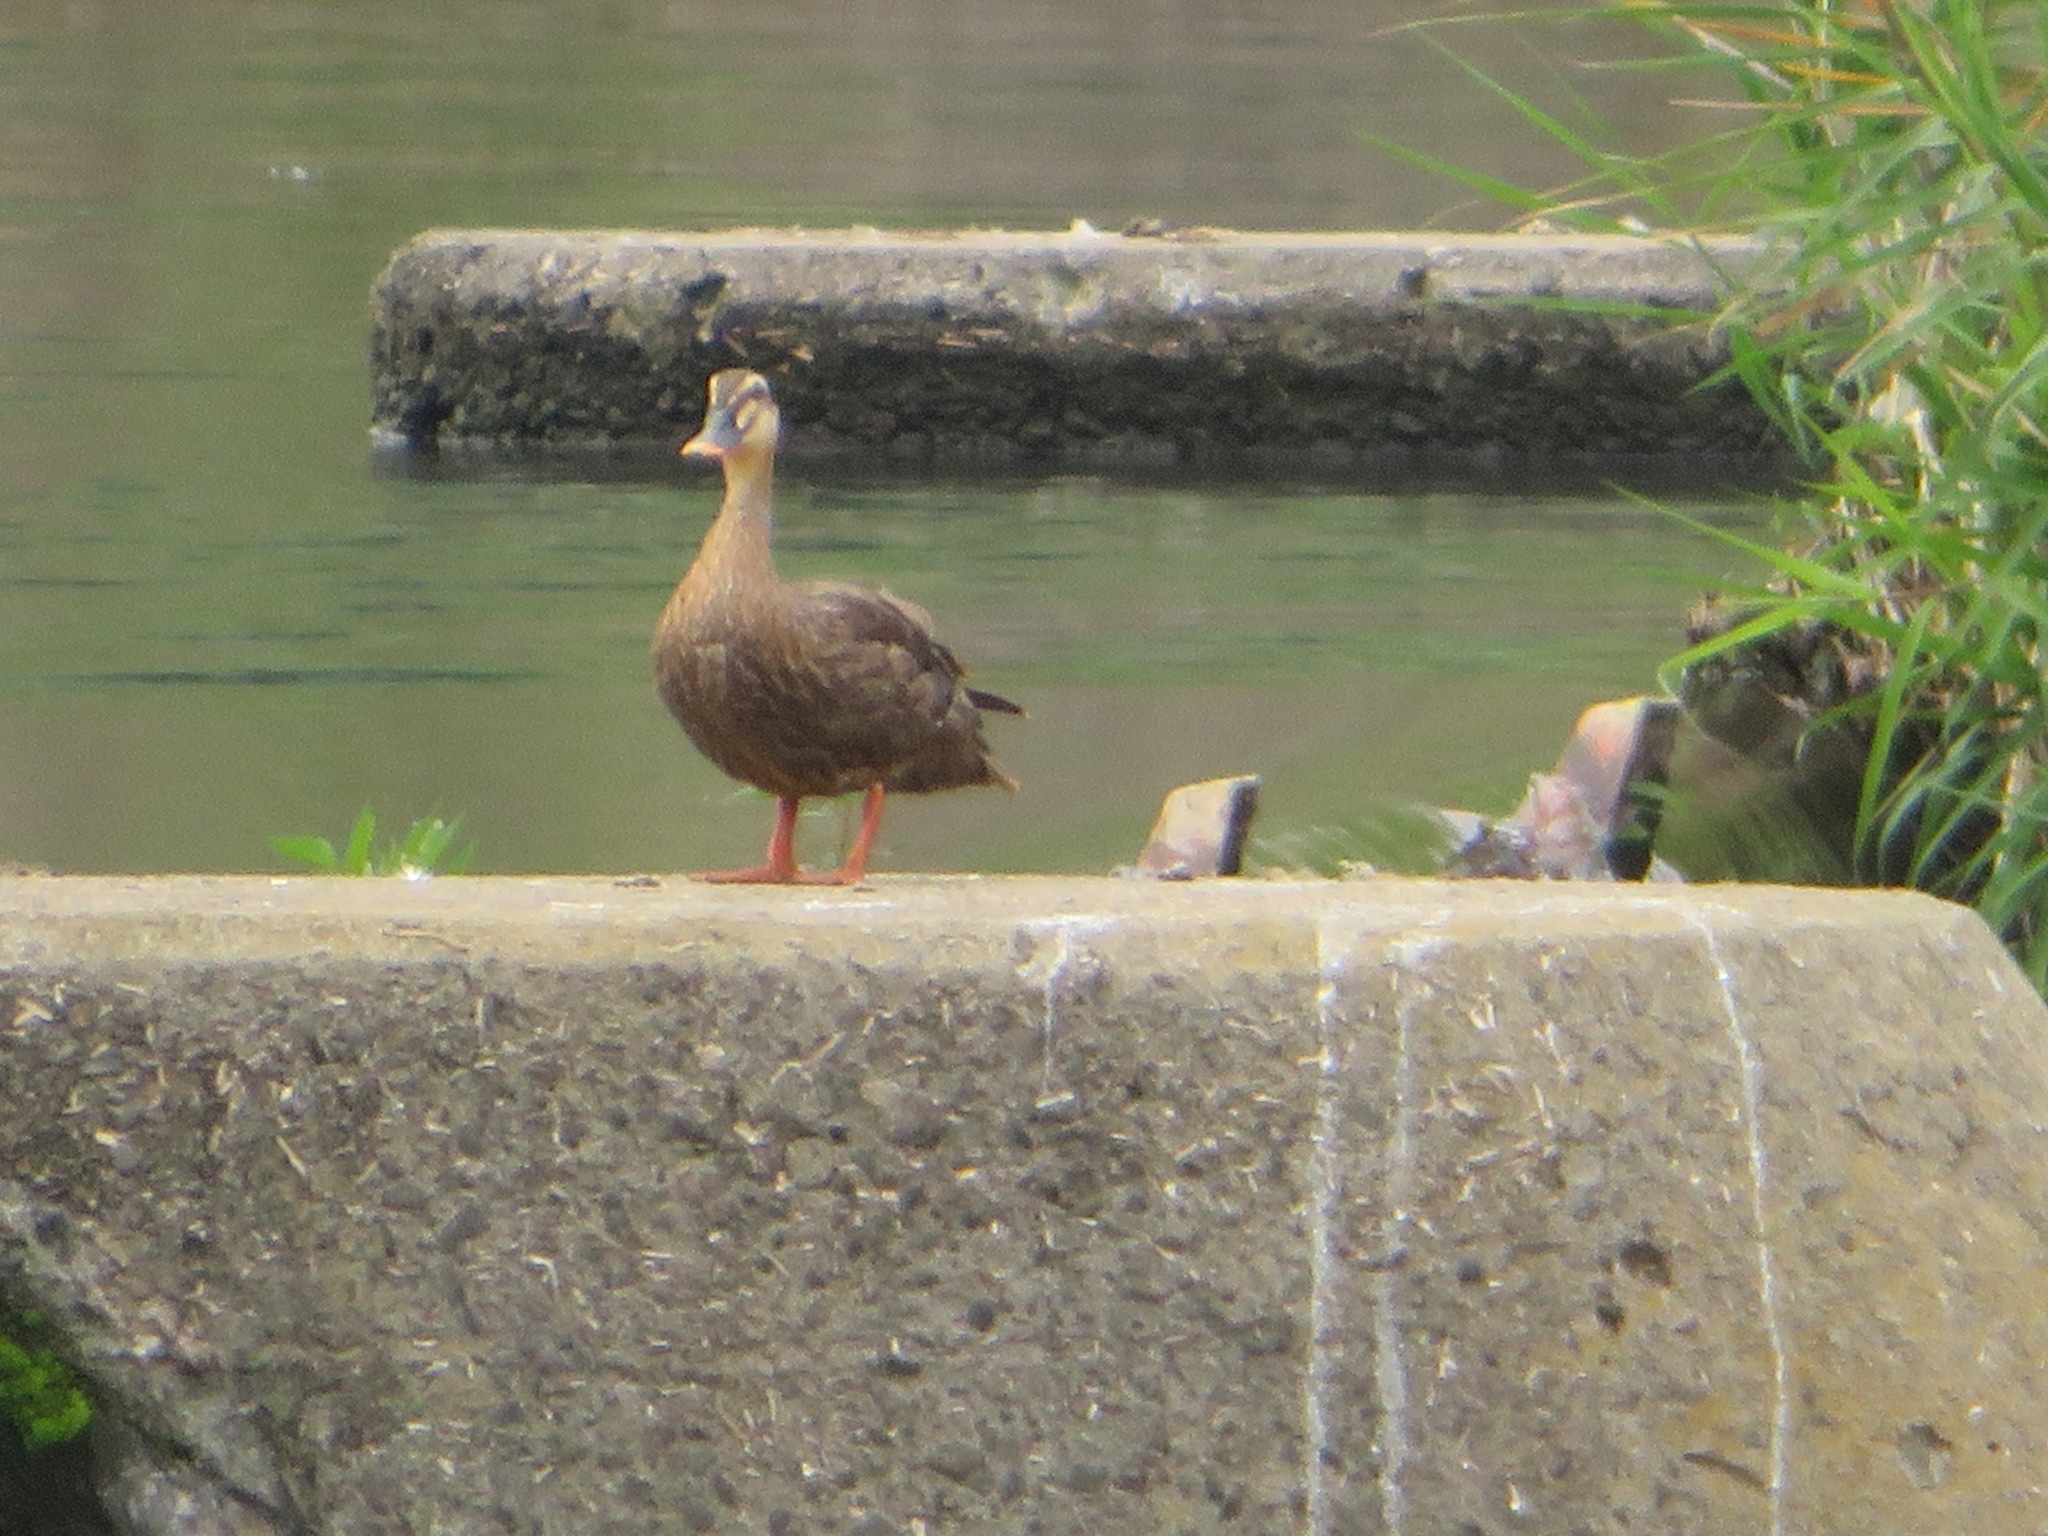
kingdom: Animalia
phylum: Chordata
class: Aves
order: Anseriformes
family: Anatidae
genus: Anas
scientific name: Anas zonorhyncha
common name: Eastern spot-billed duck
